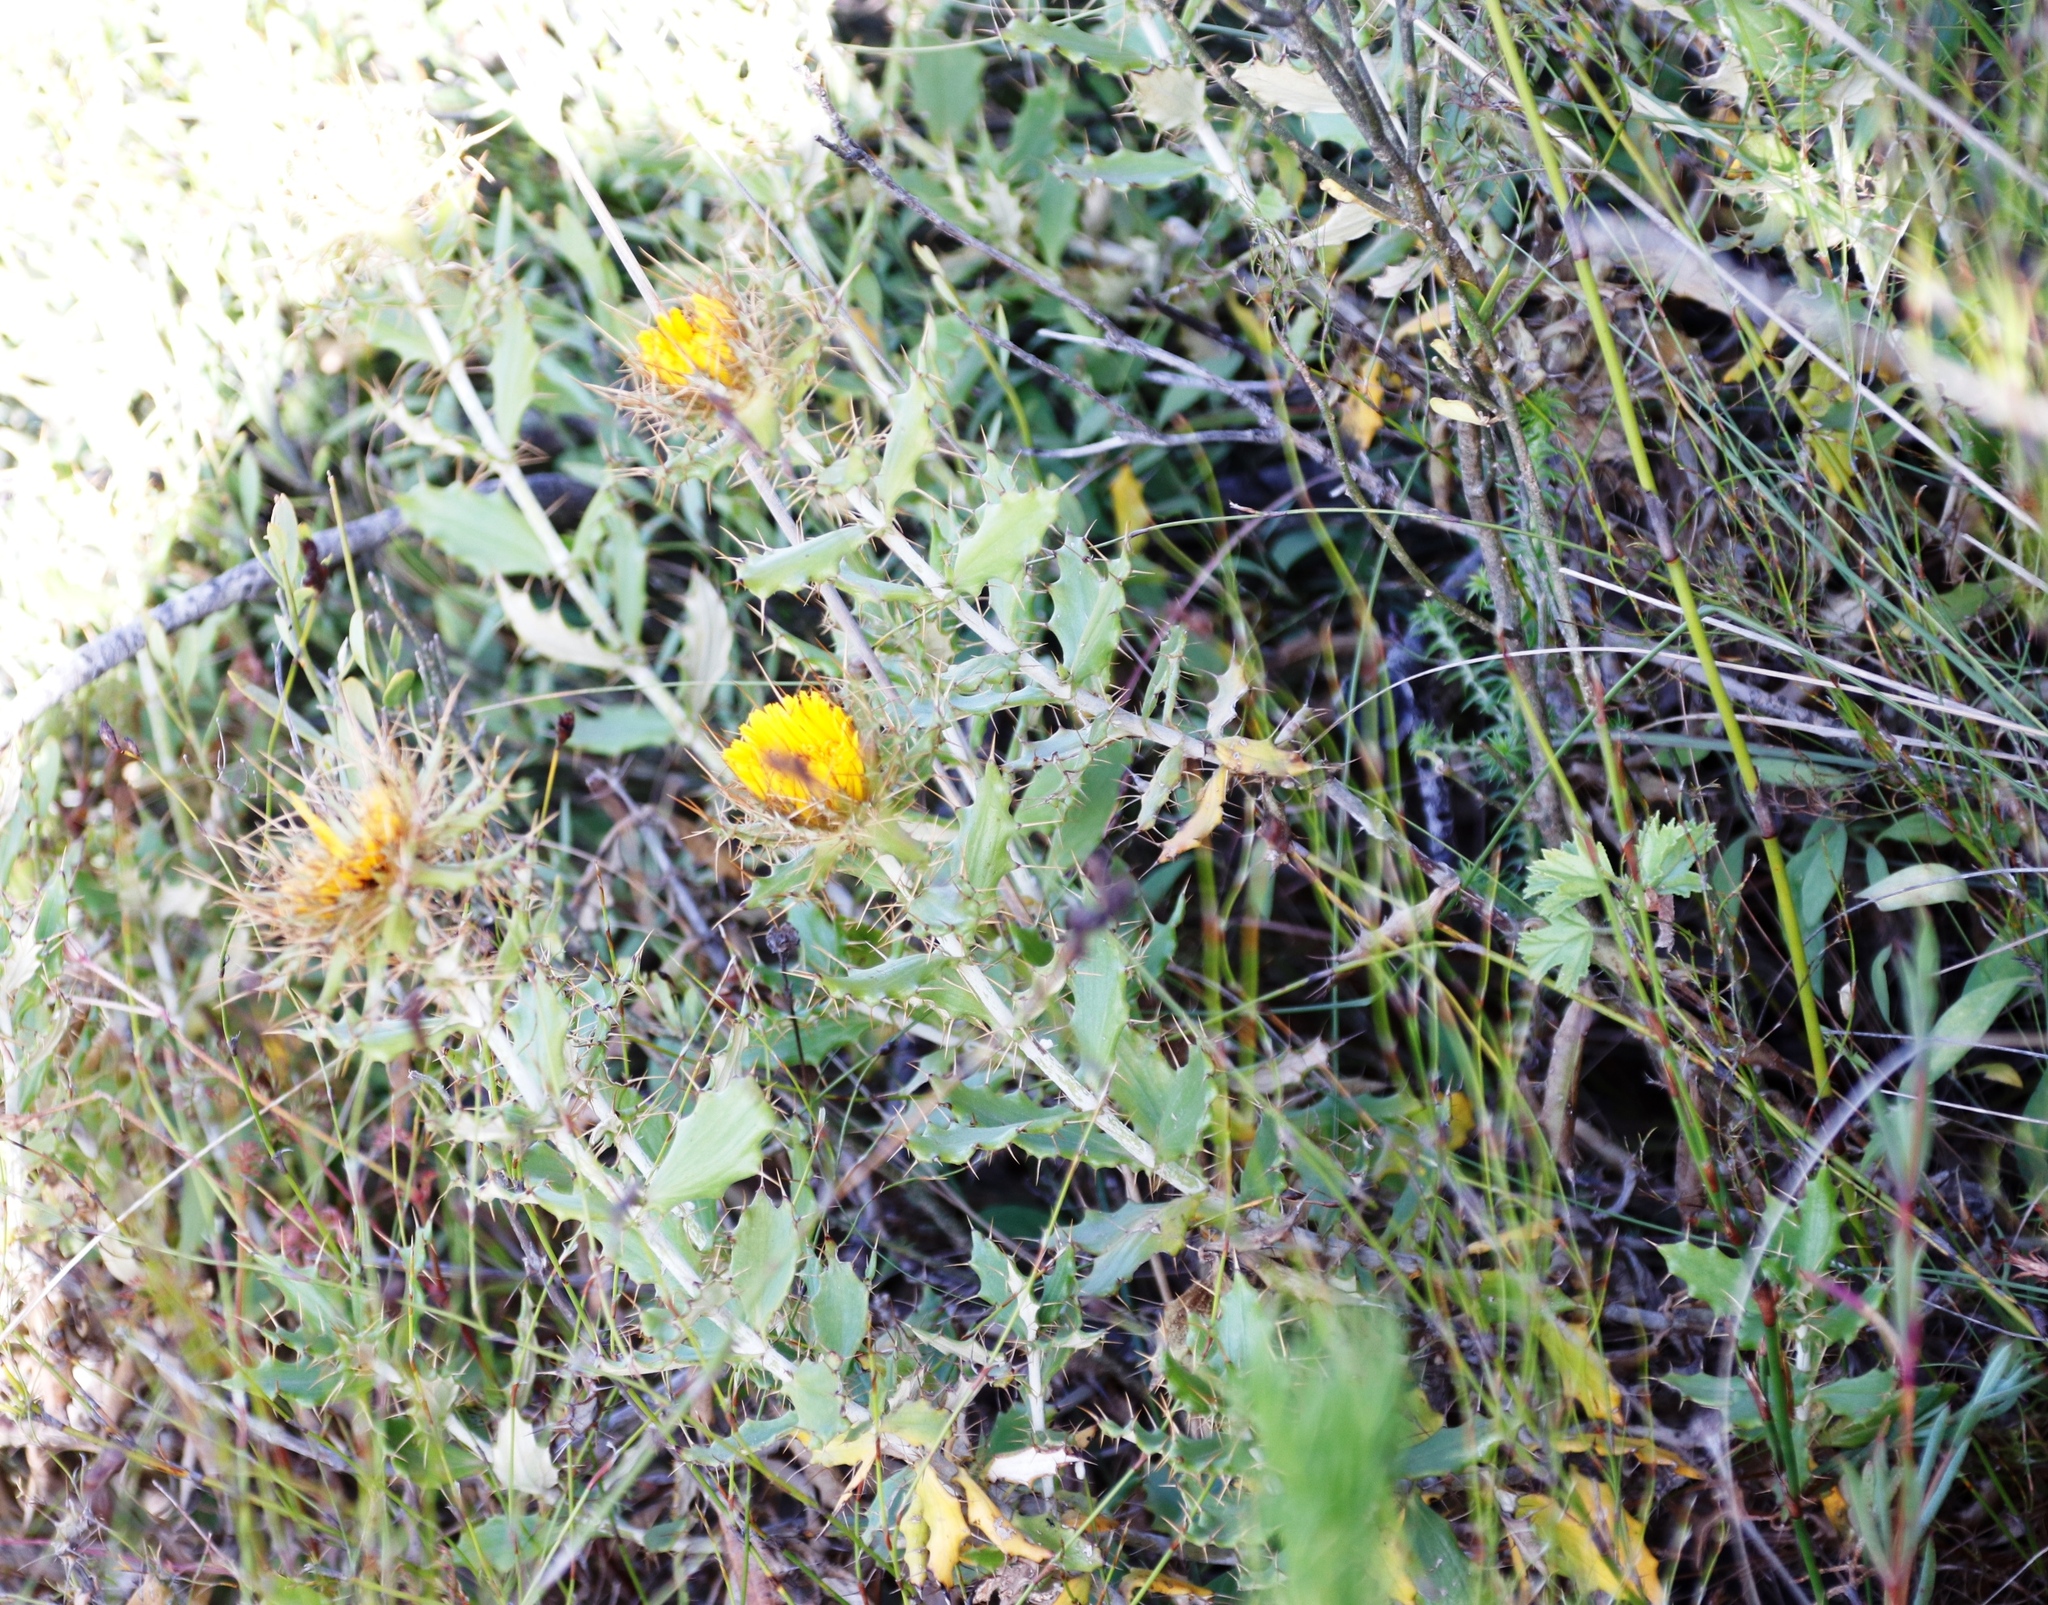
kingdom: Plantae
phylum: Tracheophyta
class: Magnoliopsida
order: Asterales
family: Asteraceae
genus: Berkheya
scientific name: Berkheya barbata
